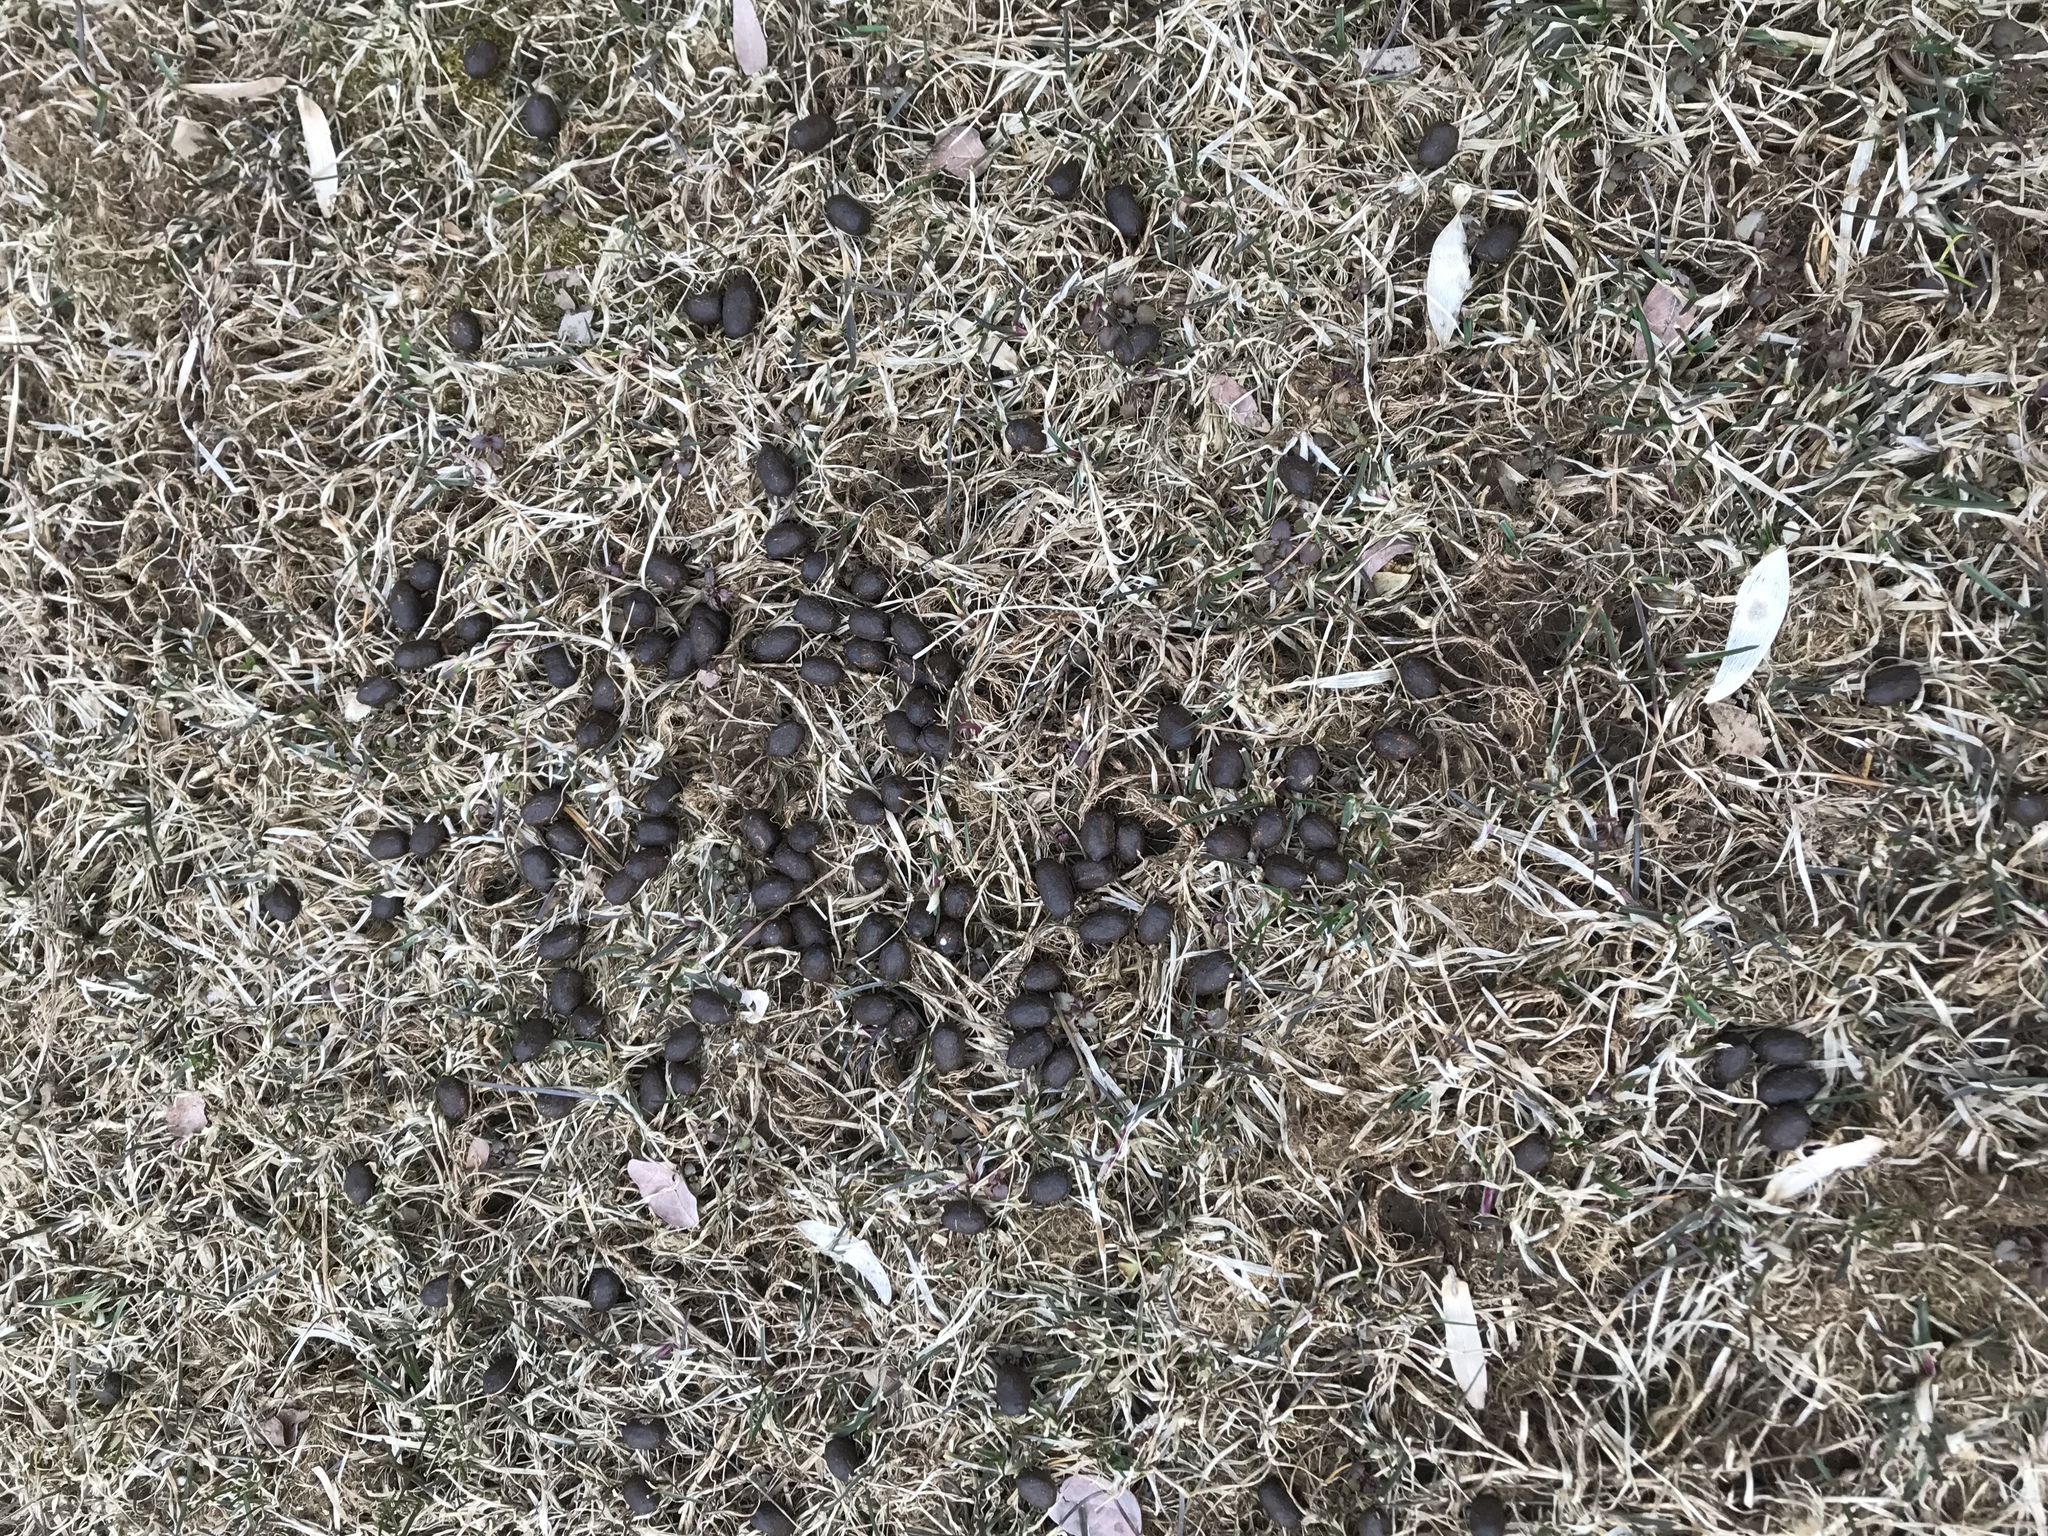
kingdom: Animalia
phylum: Chordata
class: Mammalia
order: Artiodactyla
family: Cervidae
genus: Odocoileus
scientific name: Odocoileus virginianus
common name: White-tailed deer
